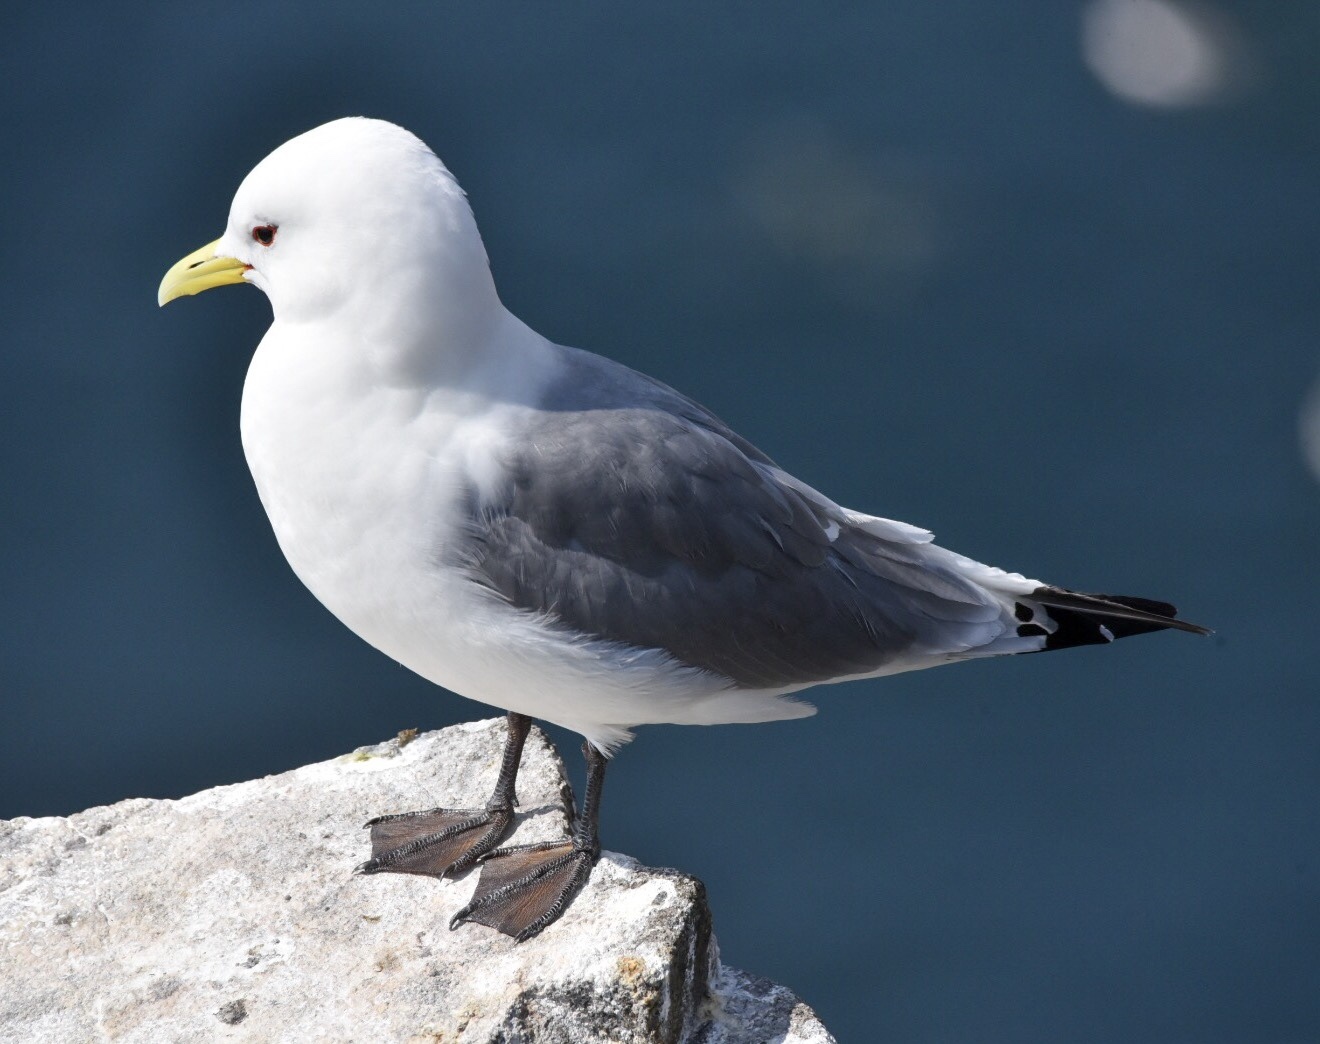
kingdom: Animalia
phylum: Chordata
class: Aves
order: Charadriiformes
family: Laridae
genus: Rissa
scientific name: Rissa tridactyla
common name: Black-legged kittiwake
